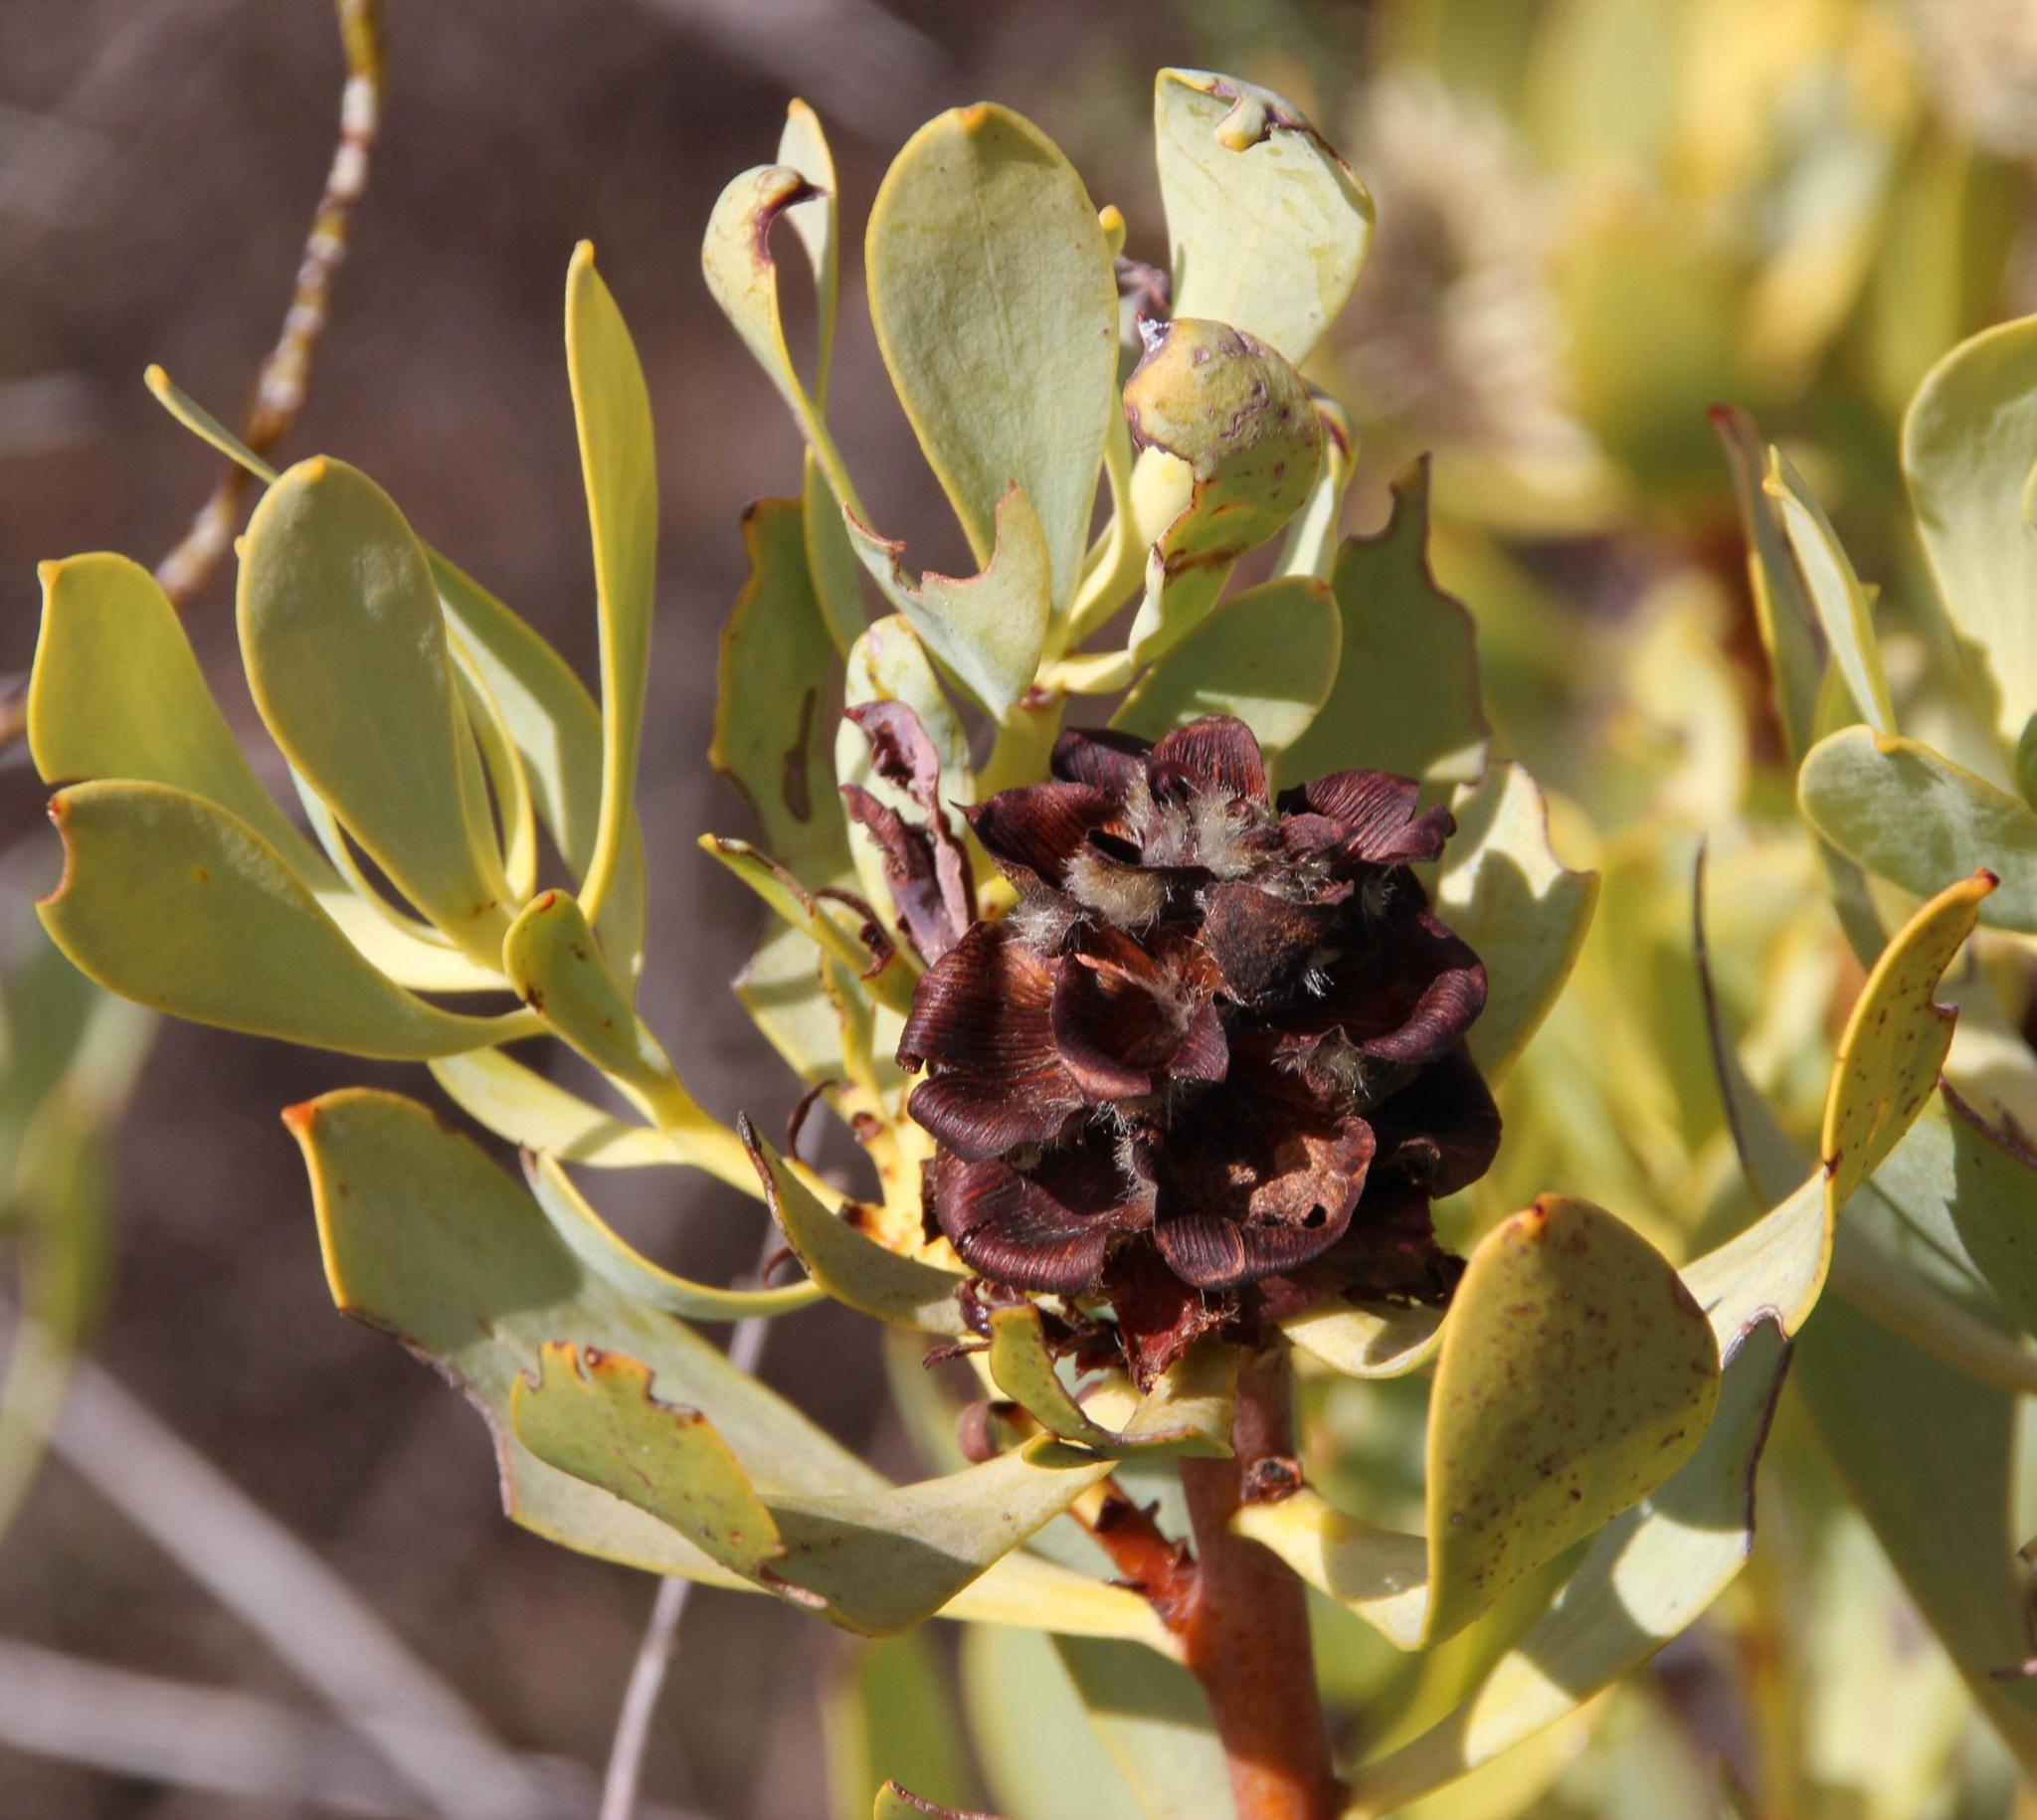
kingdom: Plantae
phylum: Tracheophyta
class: Magnoliopsida
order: Proteales
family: Proteaceae
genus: Leucadendron
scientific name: Leucadendron loranthifolium
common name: Green-flower sunbush
